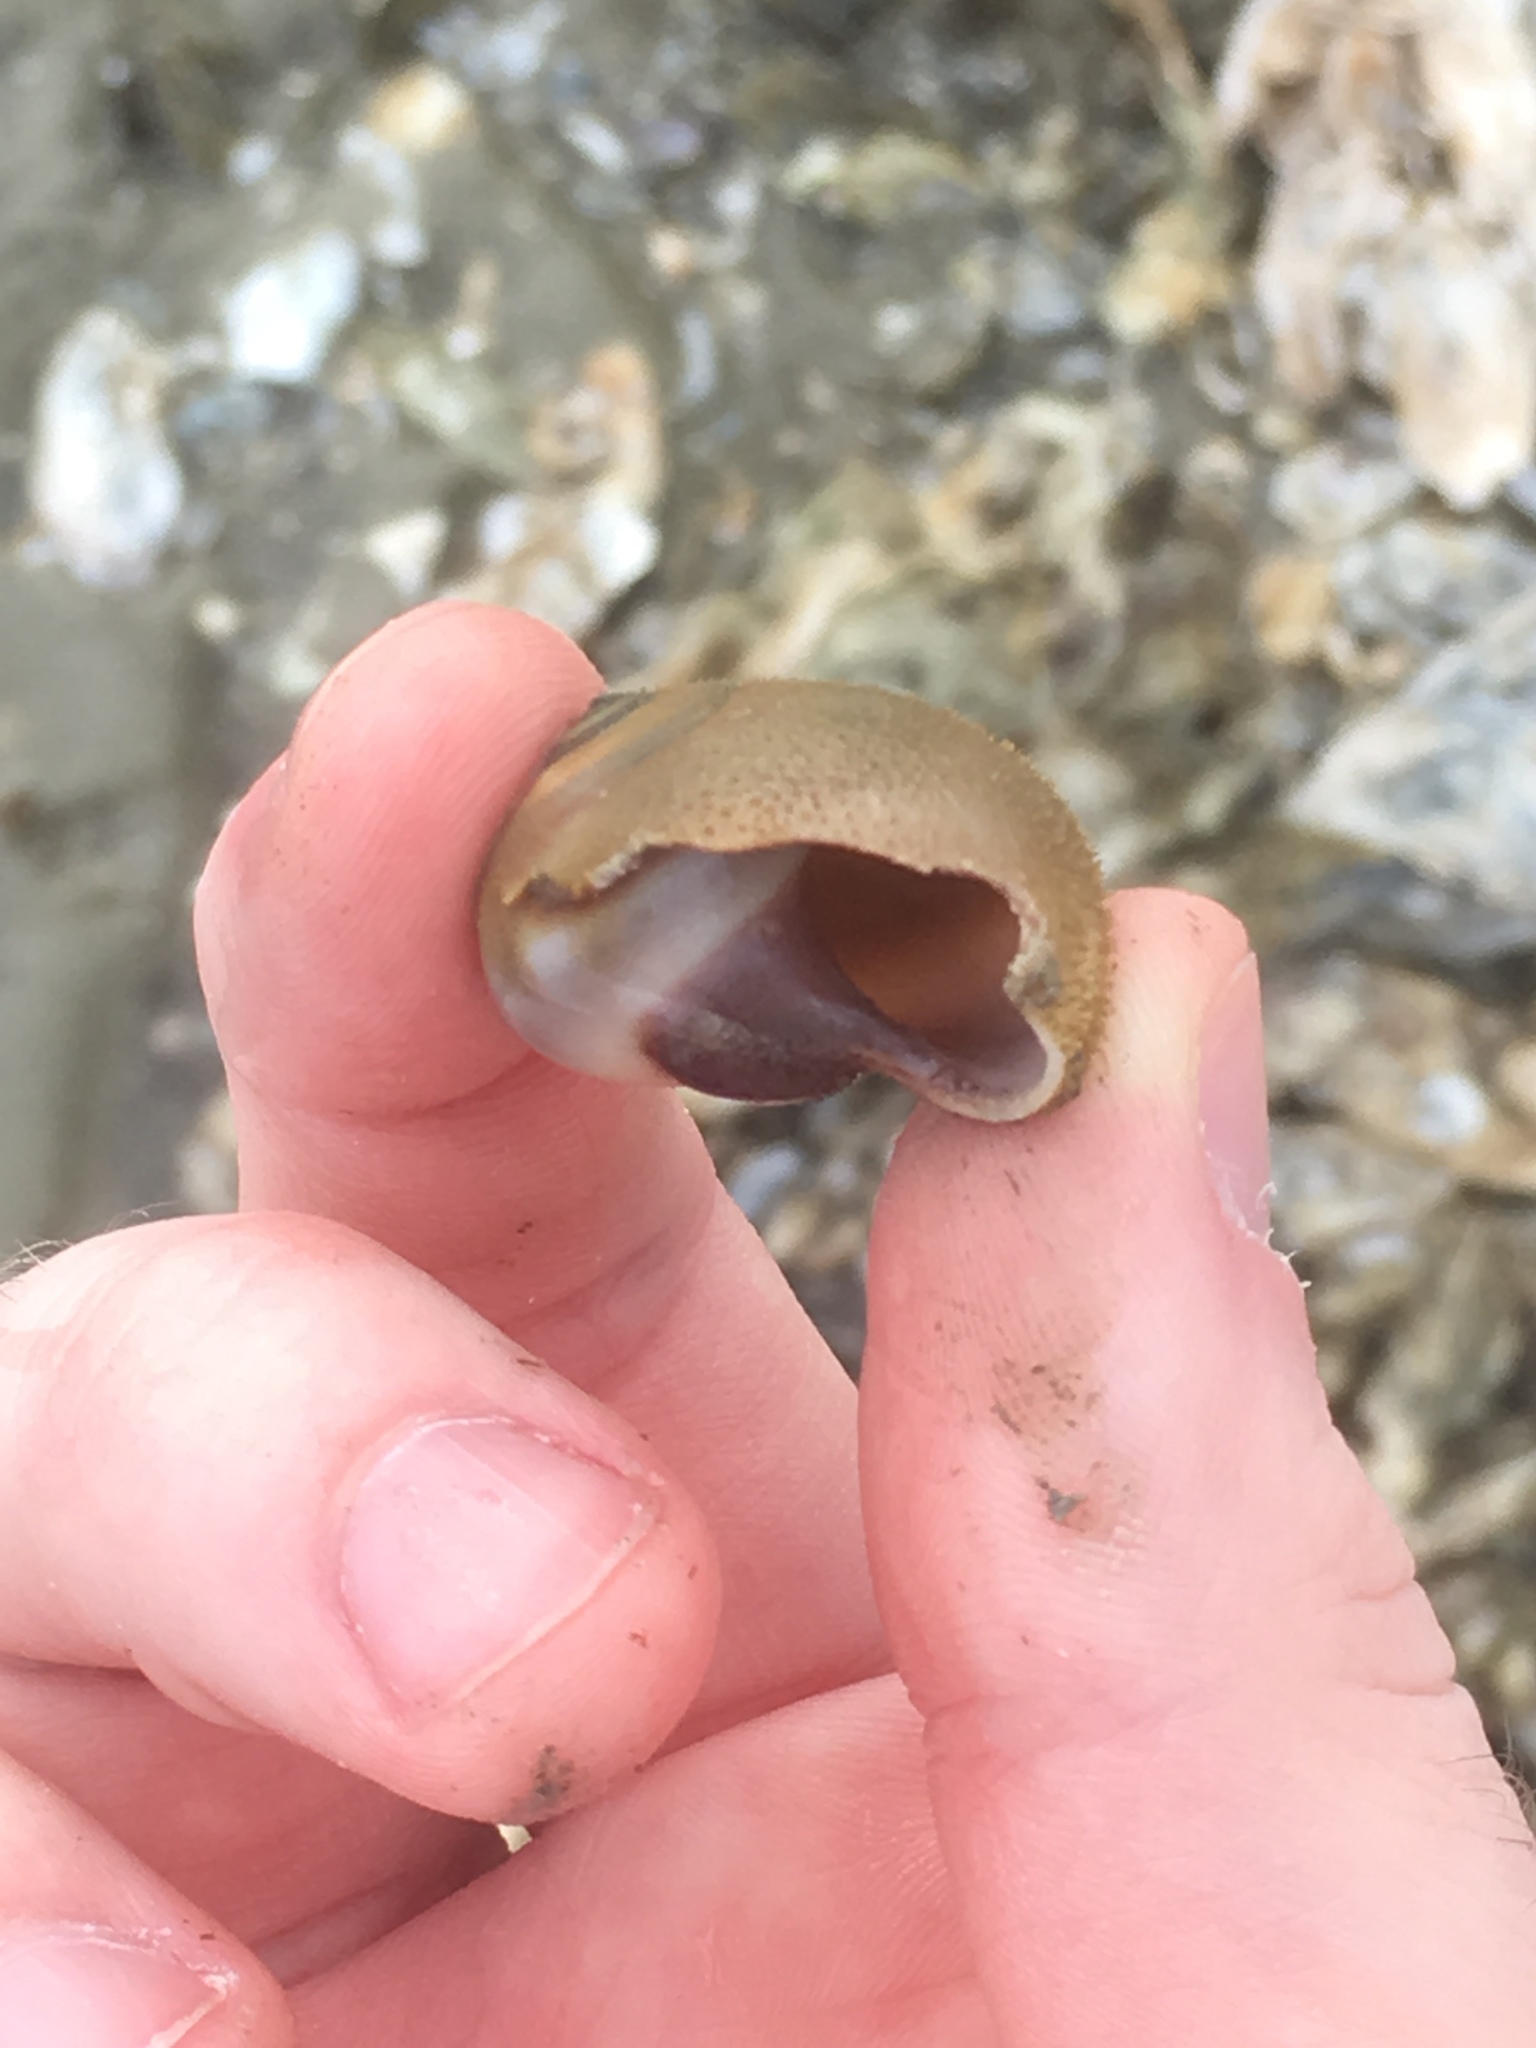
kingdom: Animalia
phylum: Mollusca
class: Gastropoda
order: Littorinimorpha
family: Naticidae
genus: Neverita
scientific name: Neverita duplicata
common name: Lobed moonsnail
